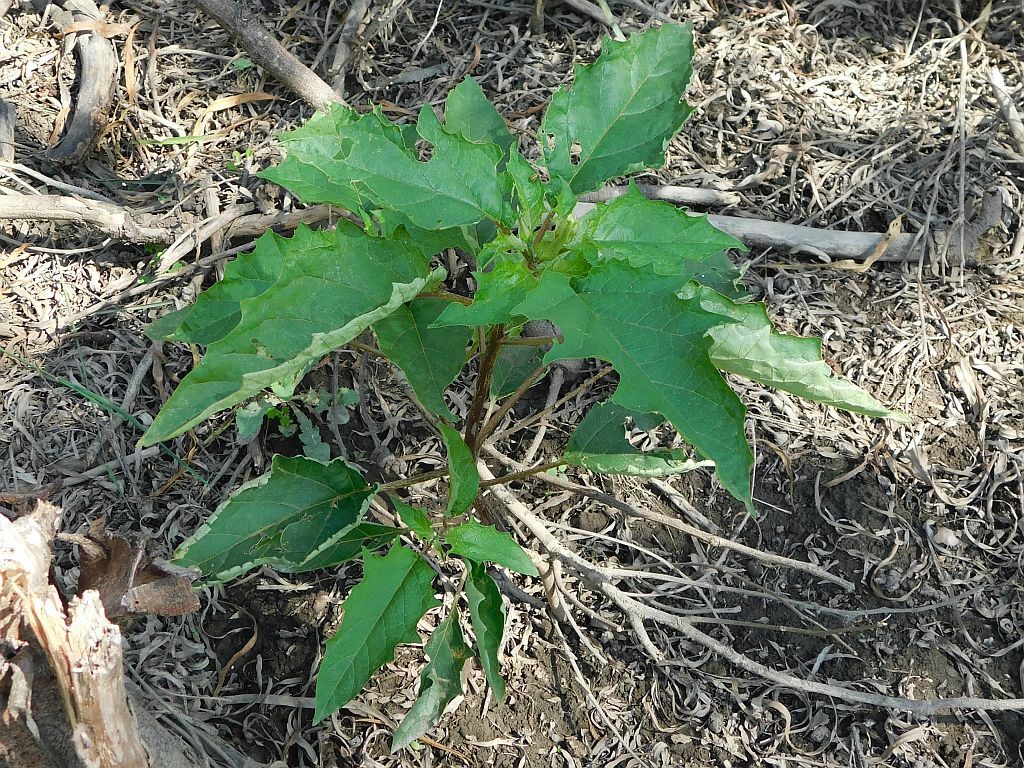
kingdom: Plantae
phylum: Tracheophyta
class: Magnoliopsida
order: Solanales
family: Solanaceae
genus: Datura
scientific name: Datura stramonium
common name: Thorn-apple
